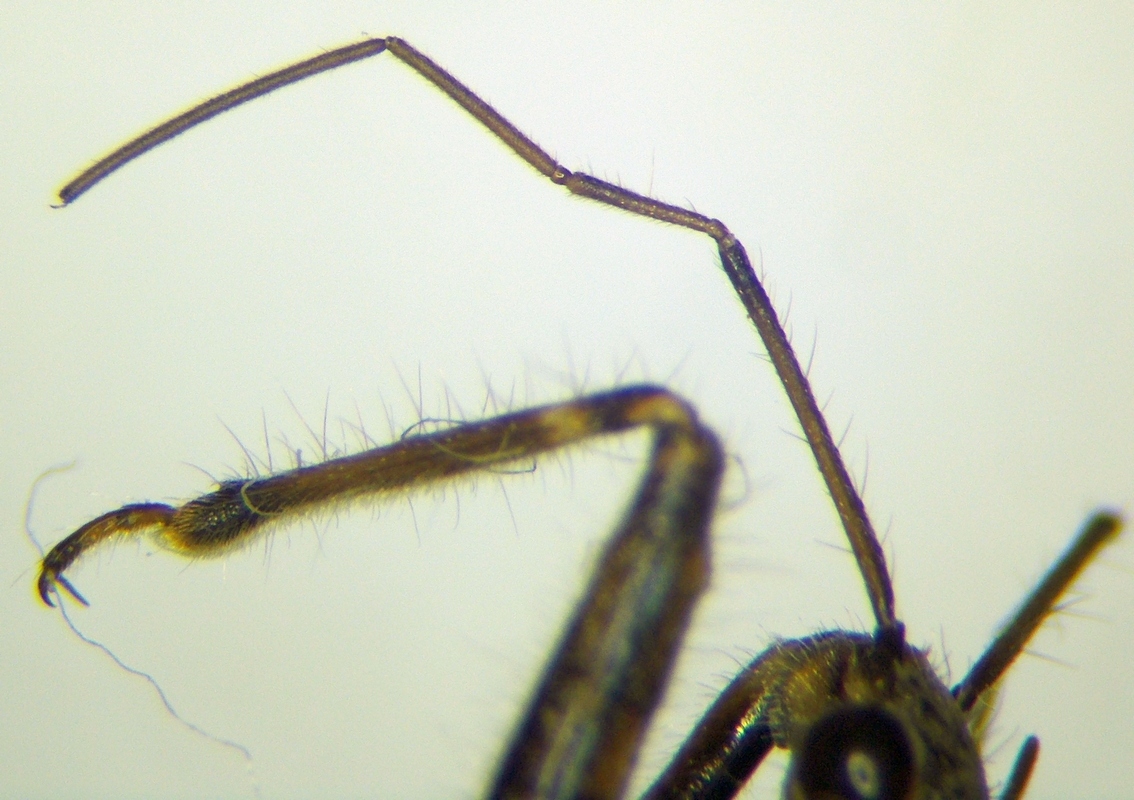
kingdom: Animalia
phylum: Arthropoda
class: Insecta
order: Hemiptera
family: Reduviidae
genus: Coranus
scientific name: Coranus woodroffei
